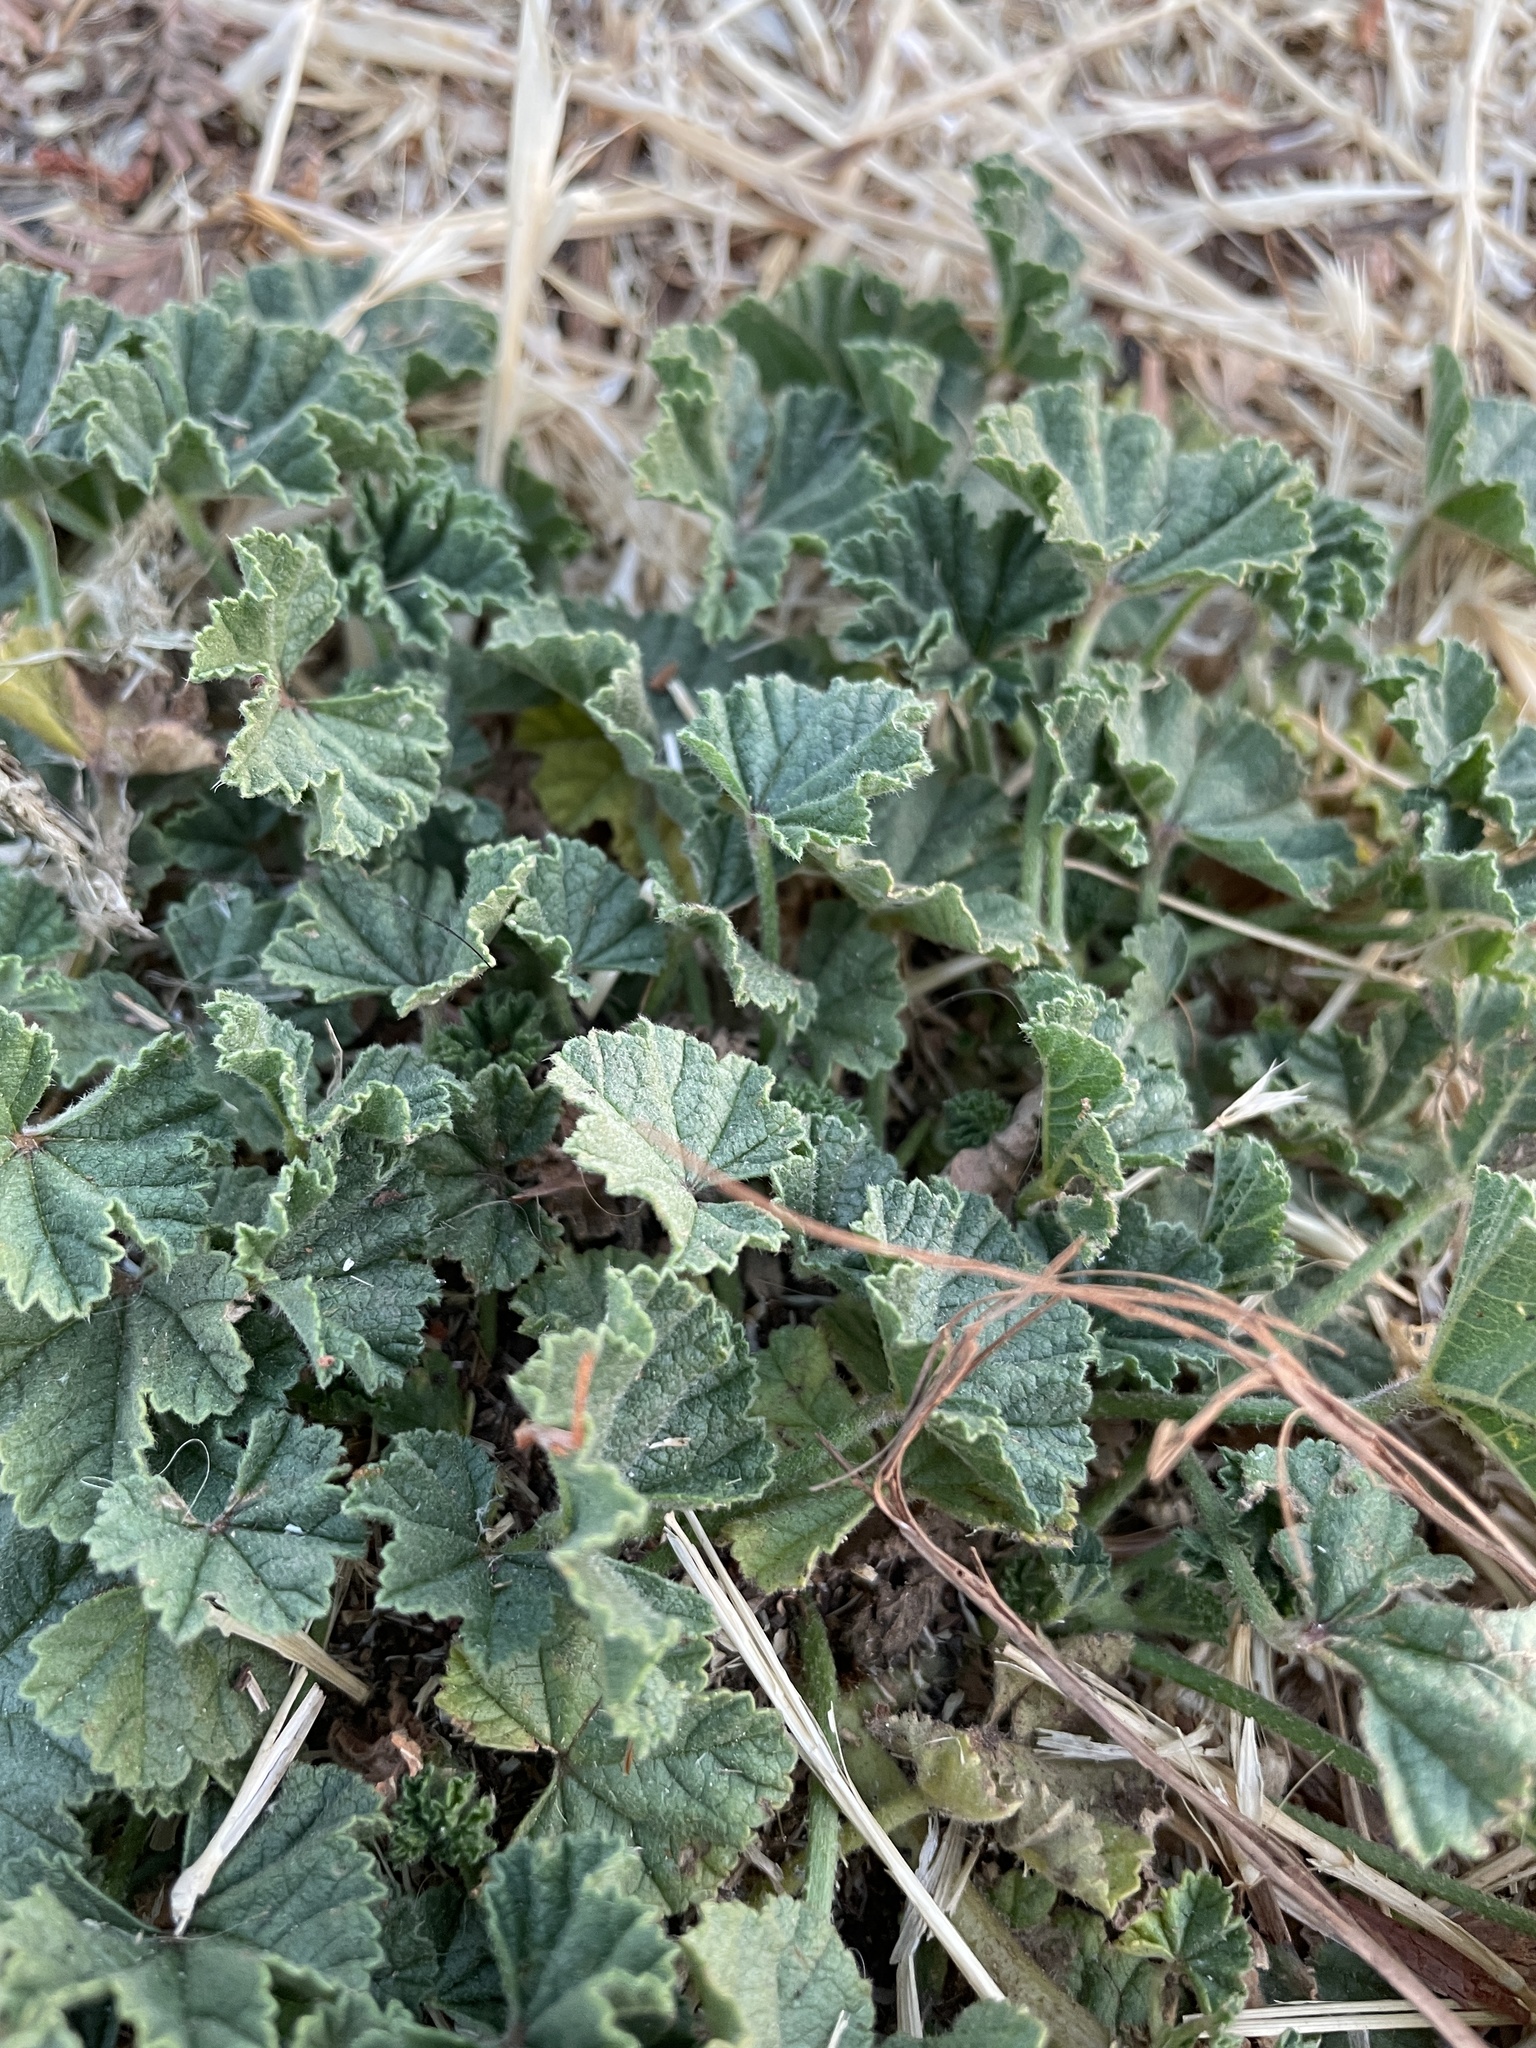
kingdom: Plantae
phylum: Tracheophyta
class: Magnoliopsida
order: Malvales
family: Malvaceae
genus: Malva
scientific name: Malva
